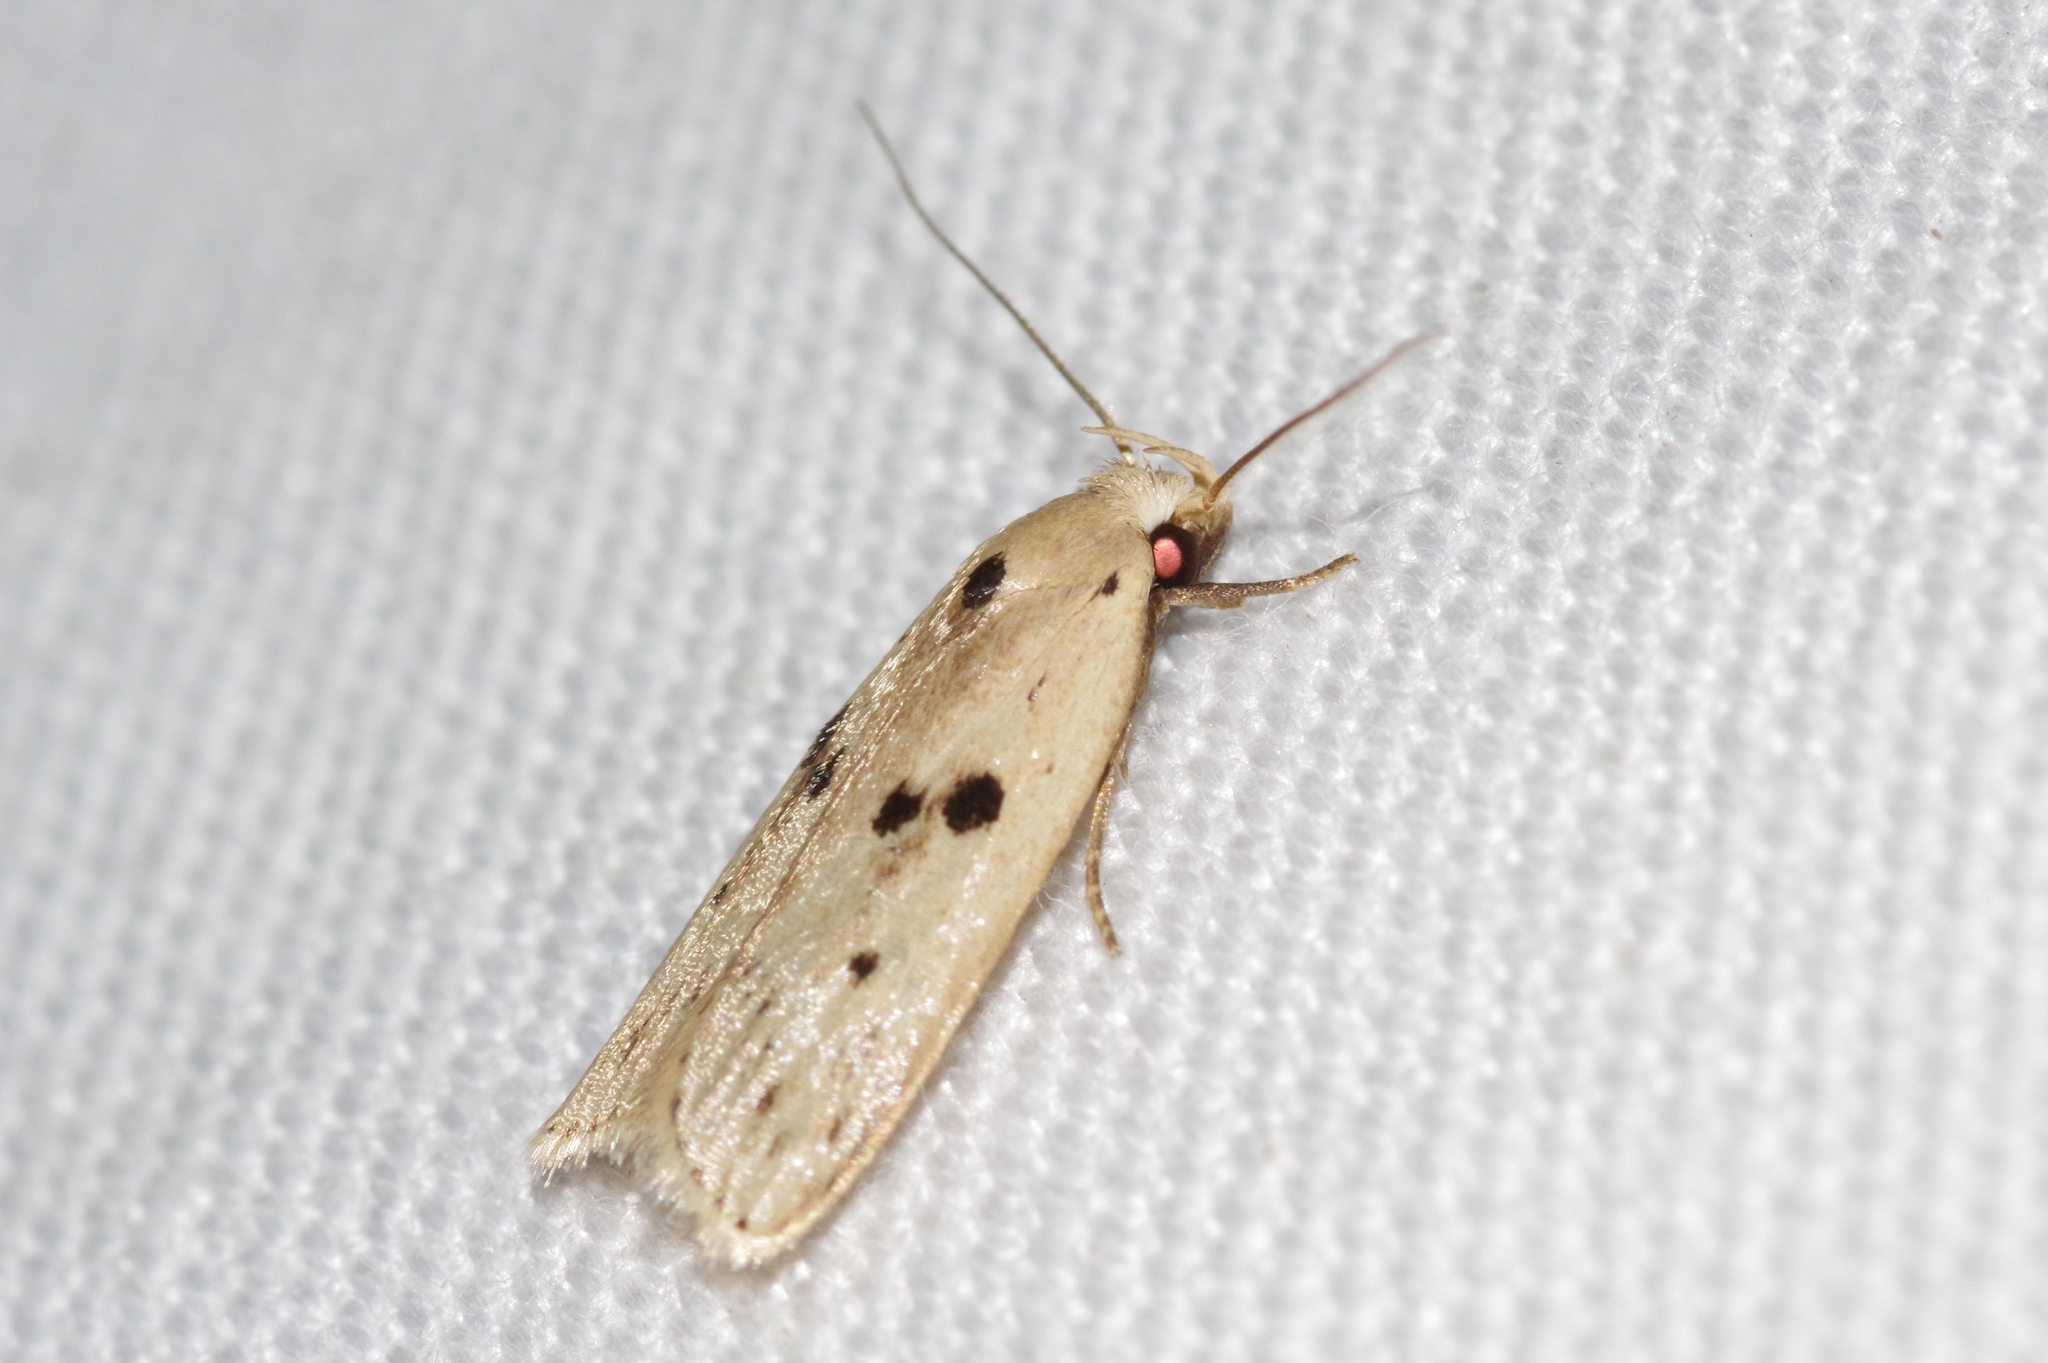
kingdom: Animalia
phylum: Arthropoda
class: Insecta
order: Lepidoptera
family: Peleopodidae
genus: Scythropiodes
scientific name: Scythropiodes issikii
